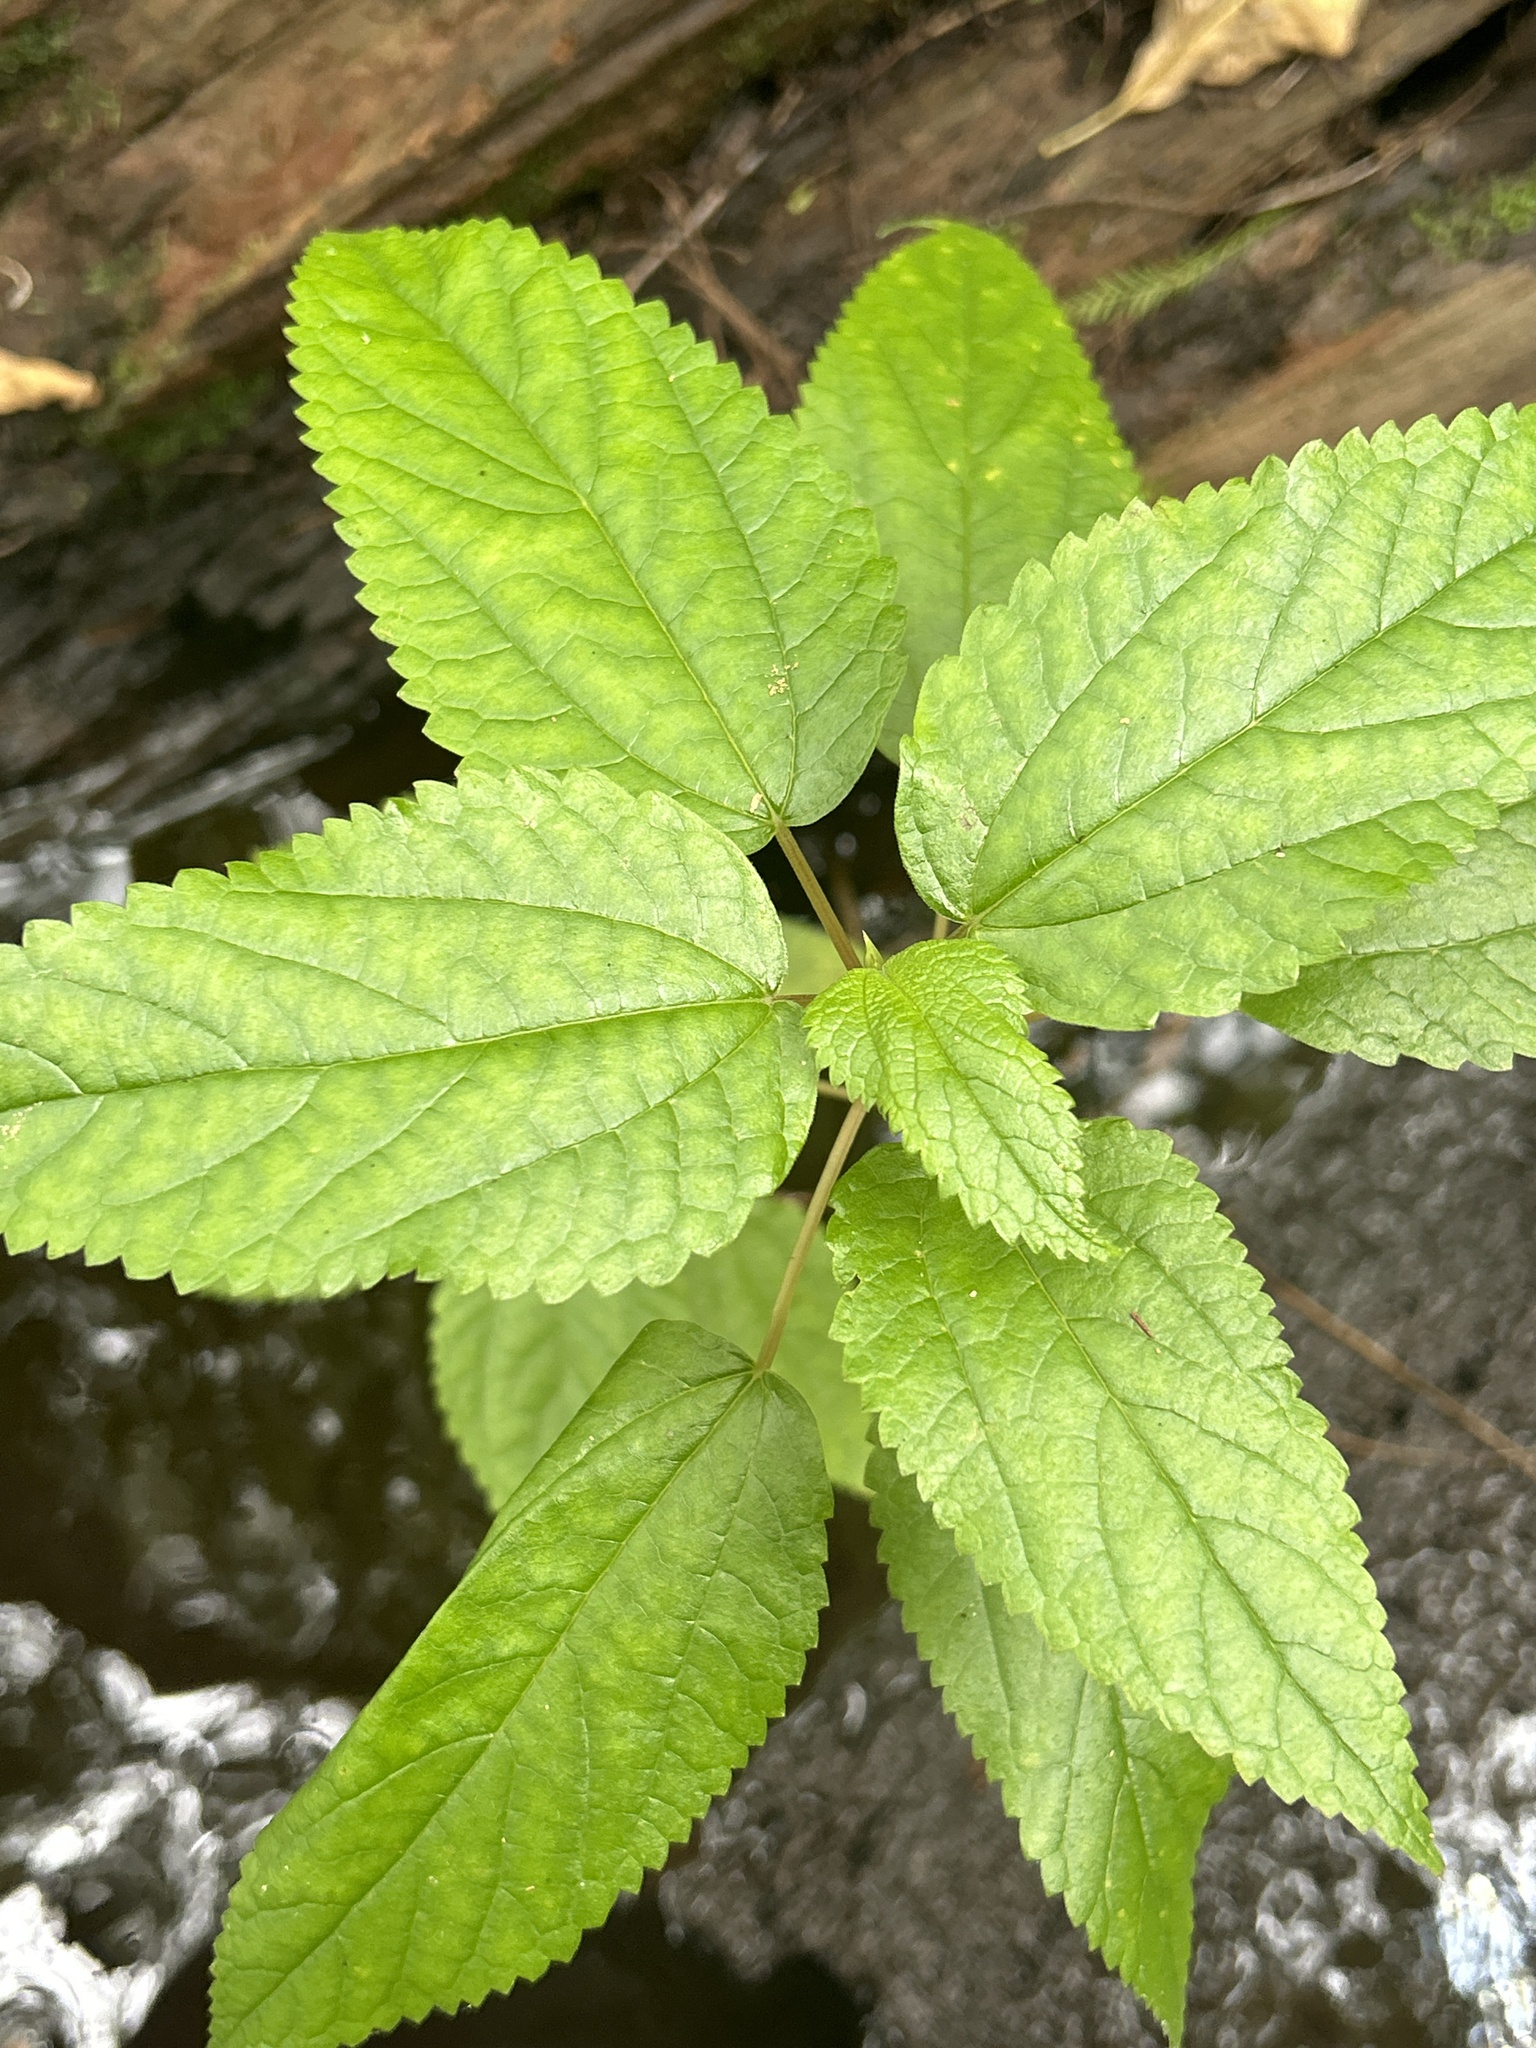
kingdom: Plantae
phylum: Tracheophyta
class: Magnoliopsida
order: Rosales
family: Urticaceae
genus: Boehmeria
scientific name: Boehmeria cylindrica
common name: Bog-hemp
